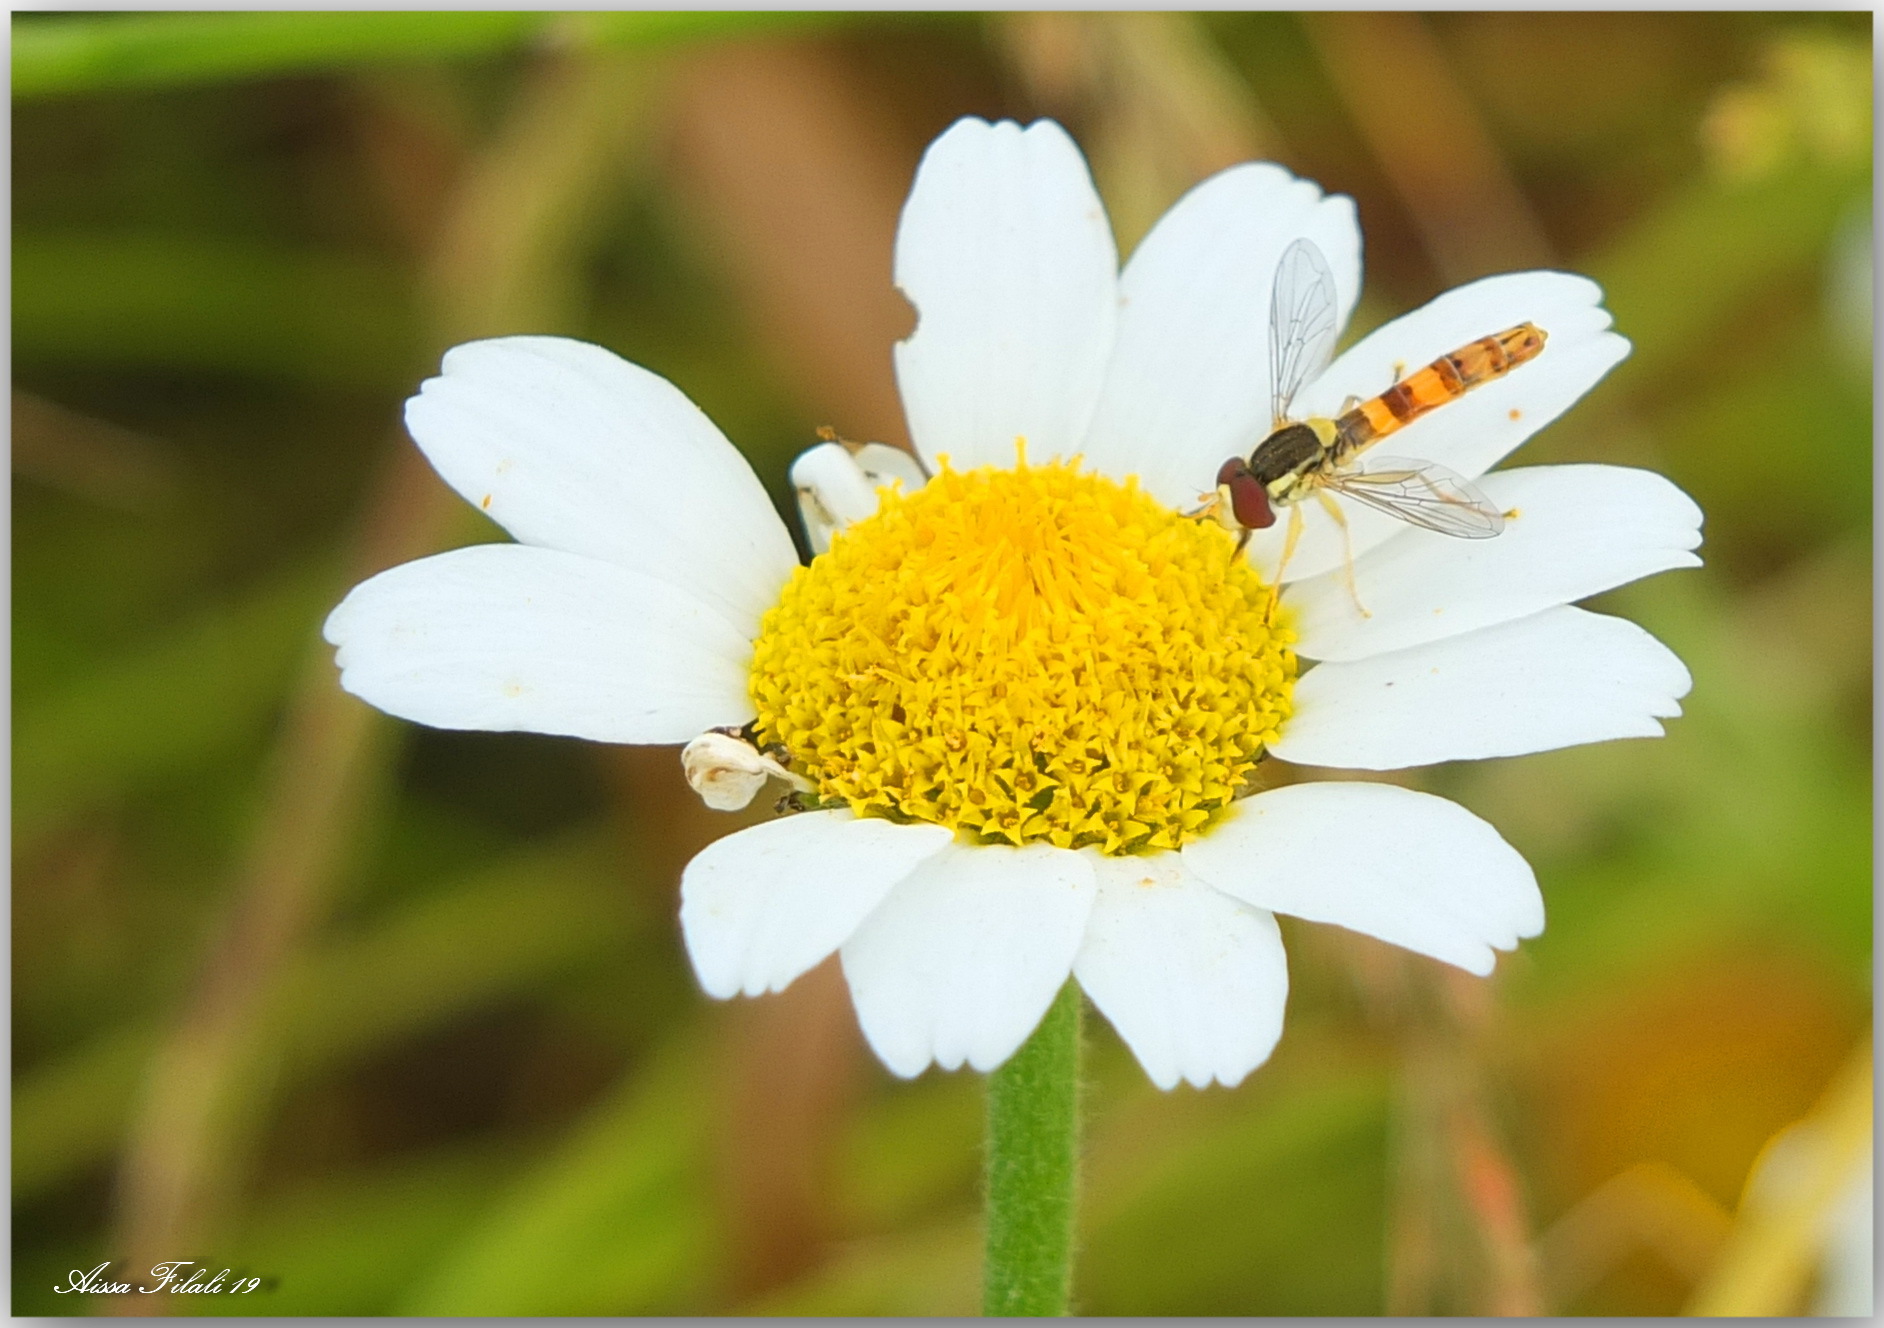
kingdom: Animalia
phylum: Arthropoda
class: Insecta
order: Diptera
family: Syrphidae
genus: Sphaerophoria
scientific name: Sphaerophoria scripta
